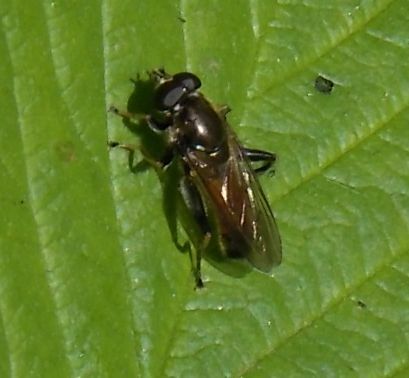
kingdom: Animalia
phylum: Arthropoda
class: Insecta
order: Diptera
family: Syrphidae
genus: Xylota
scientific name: Xylota segnis
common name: Brown-toed forest fly
